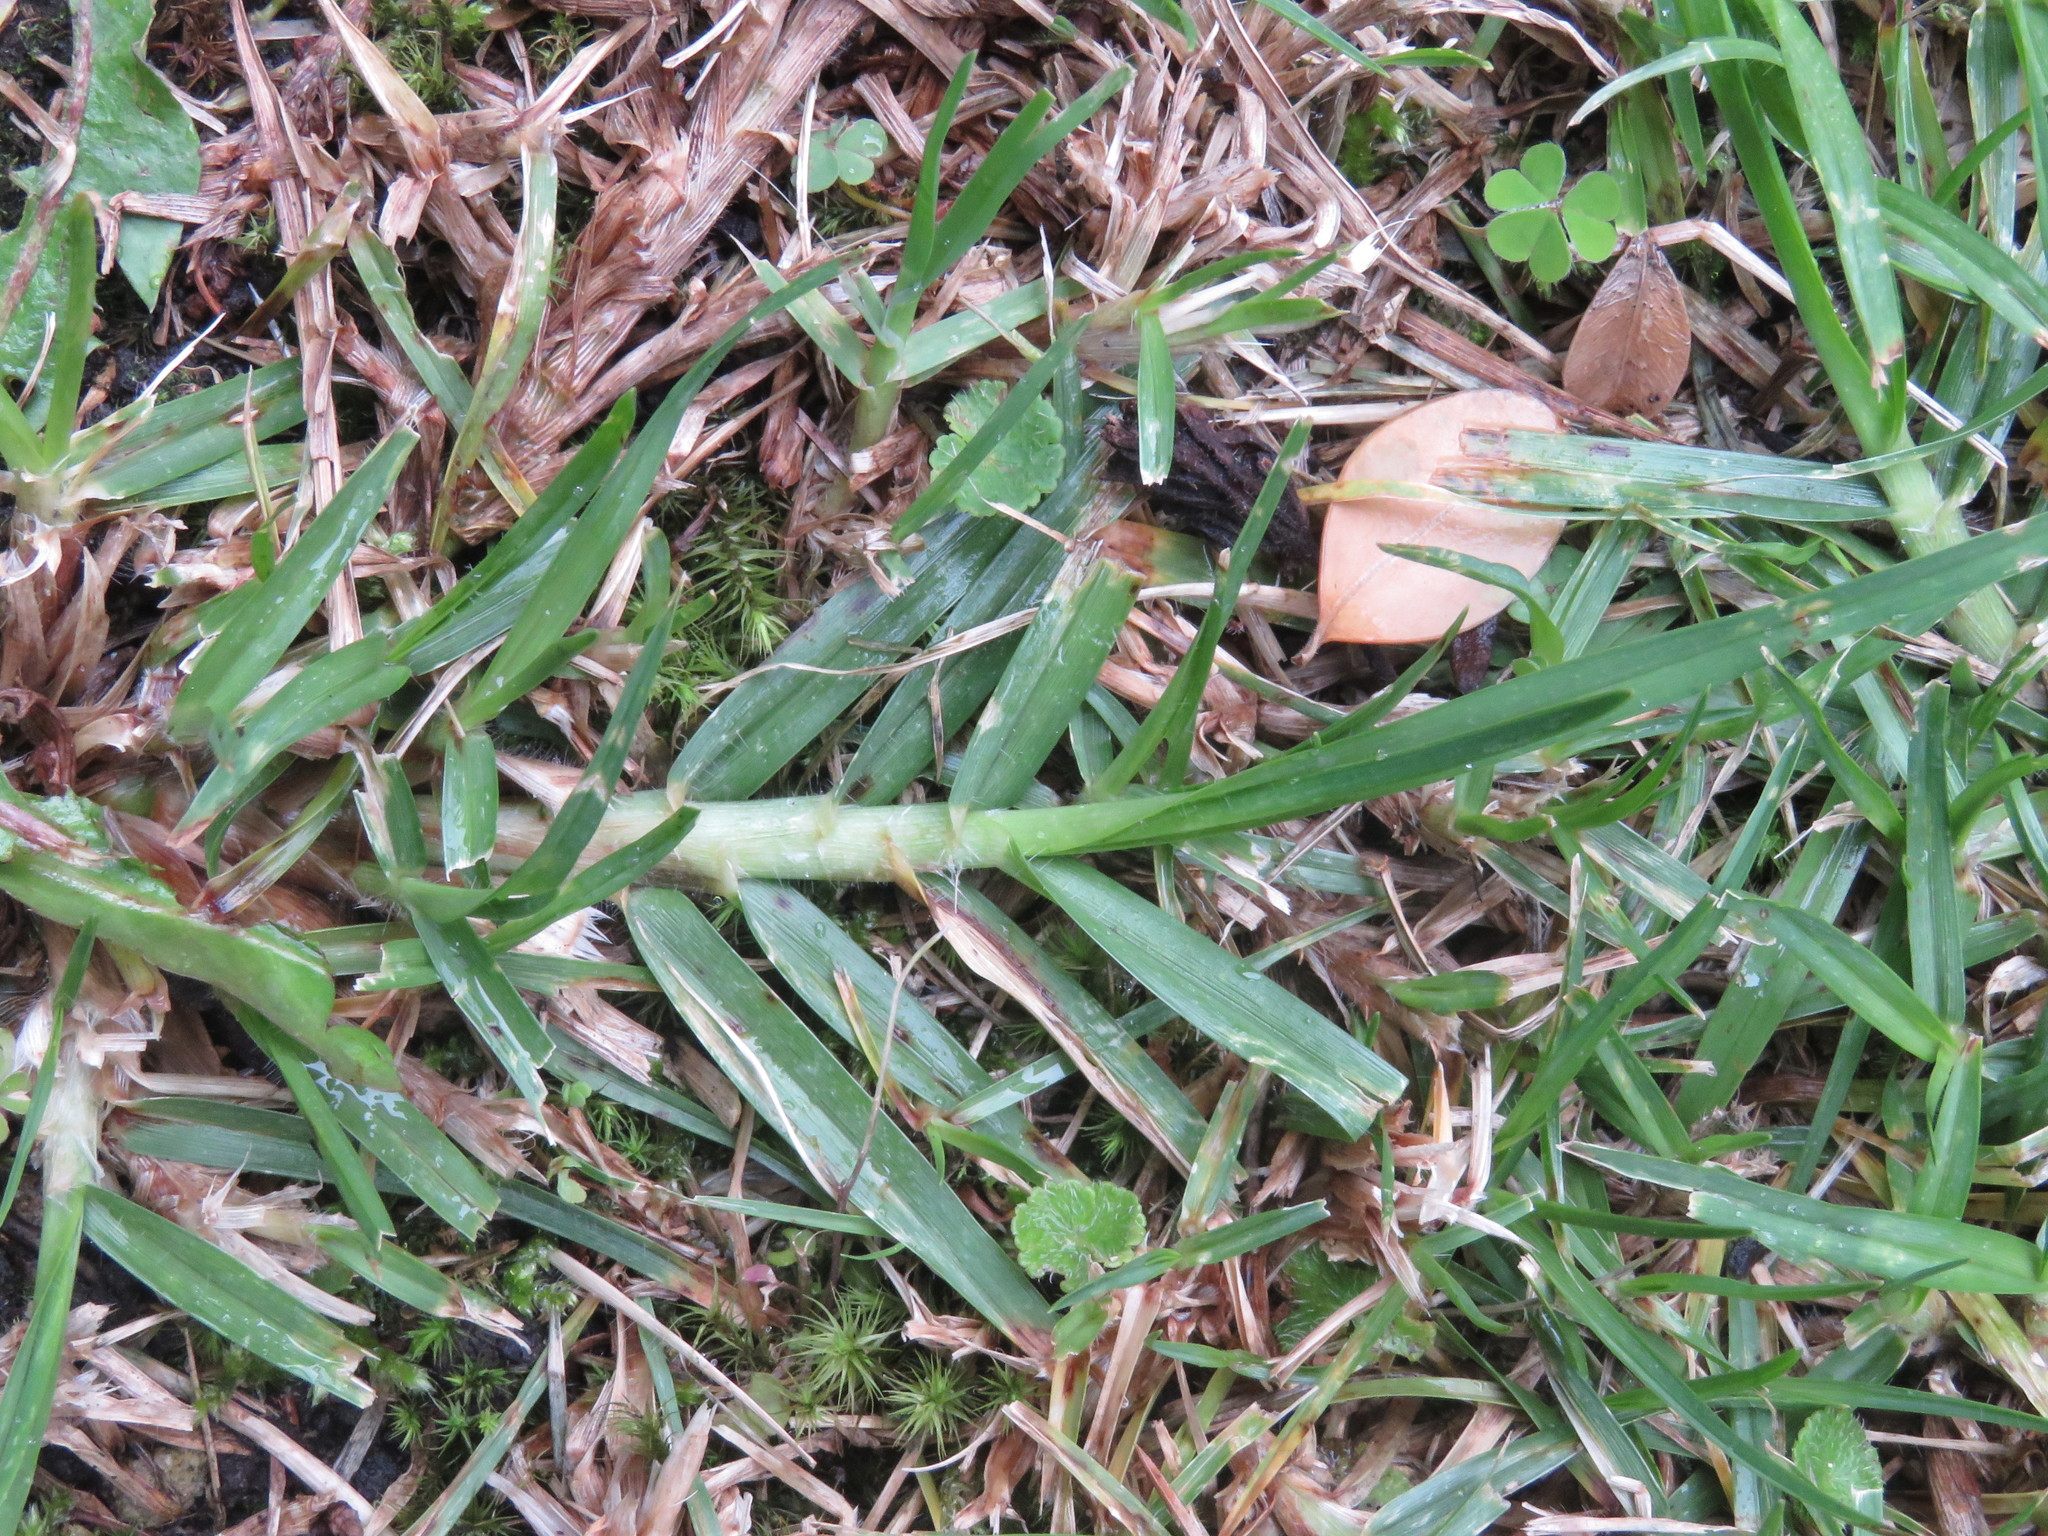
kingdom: Plantae
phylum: Tracheophyta
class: Liliopsida
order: Poales
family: Poaceae
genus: Cenchrus
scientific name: Cenchrus clandestinus
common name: Kikuyugrass
